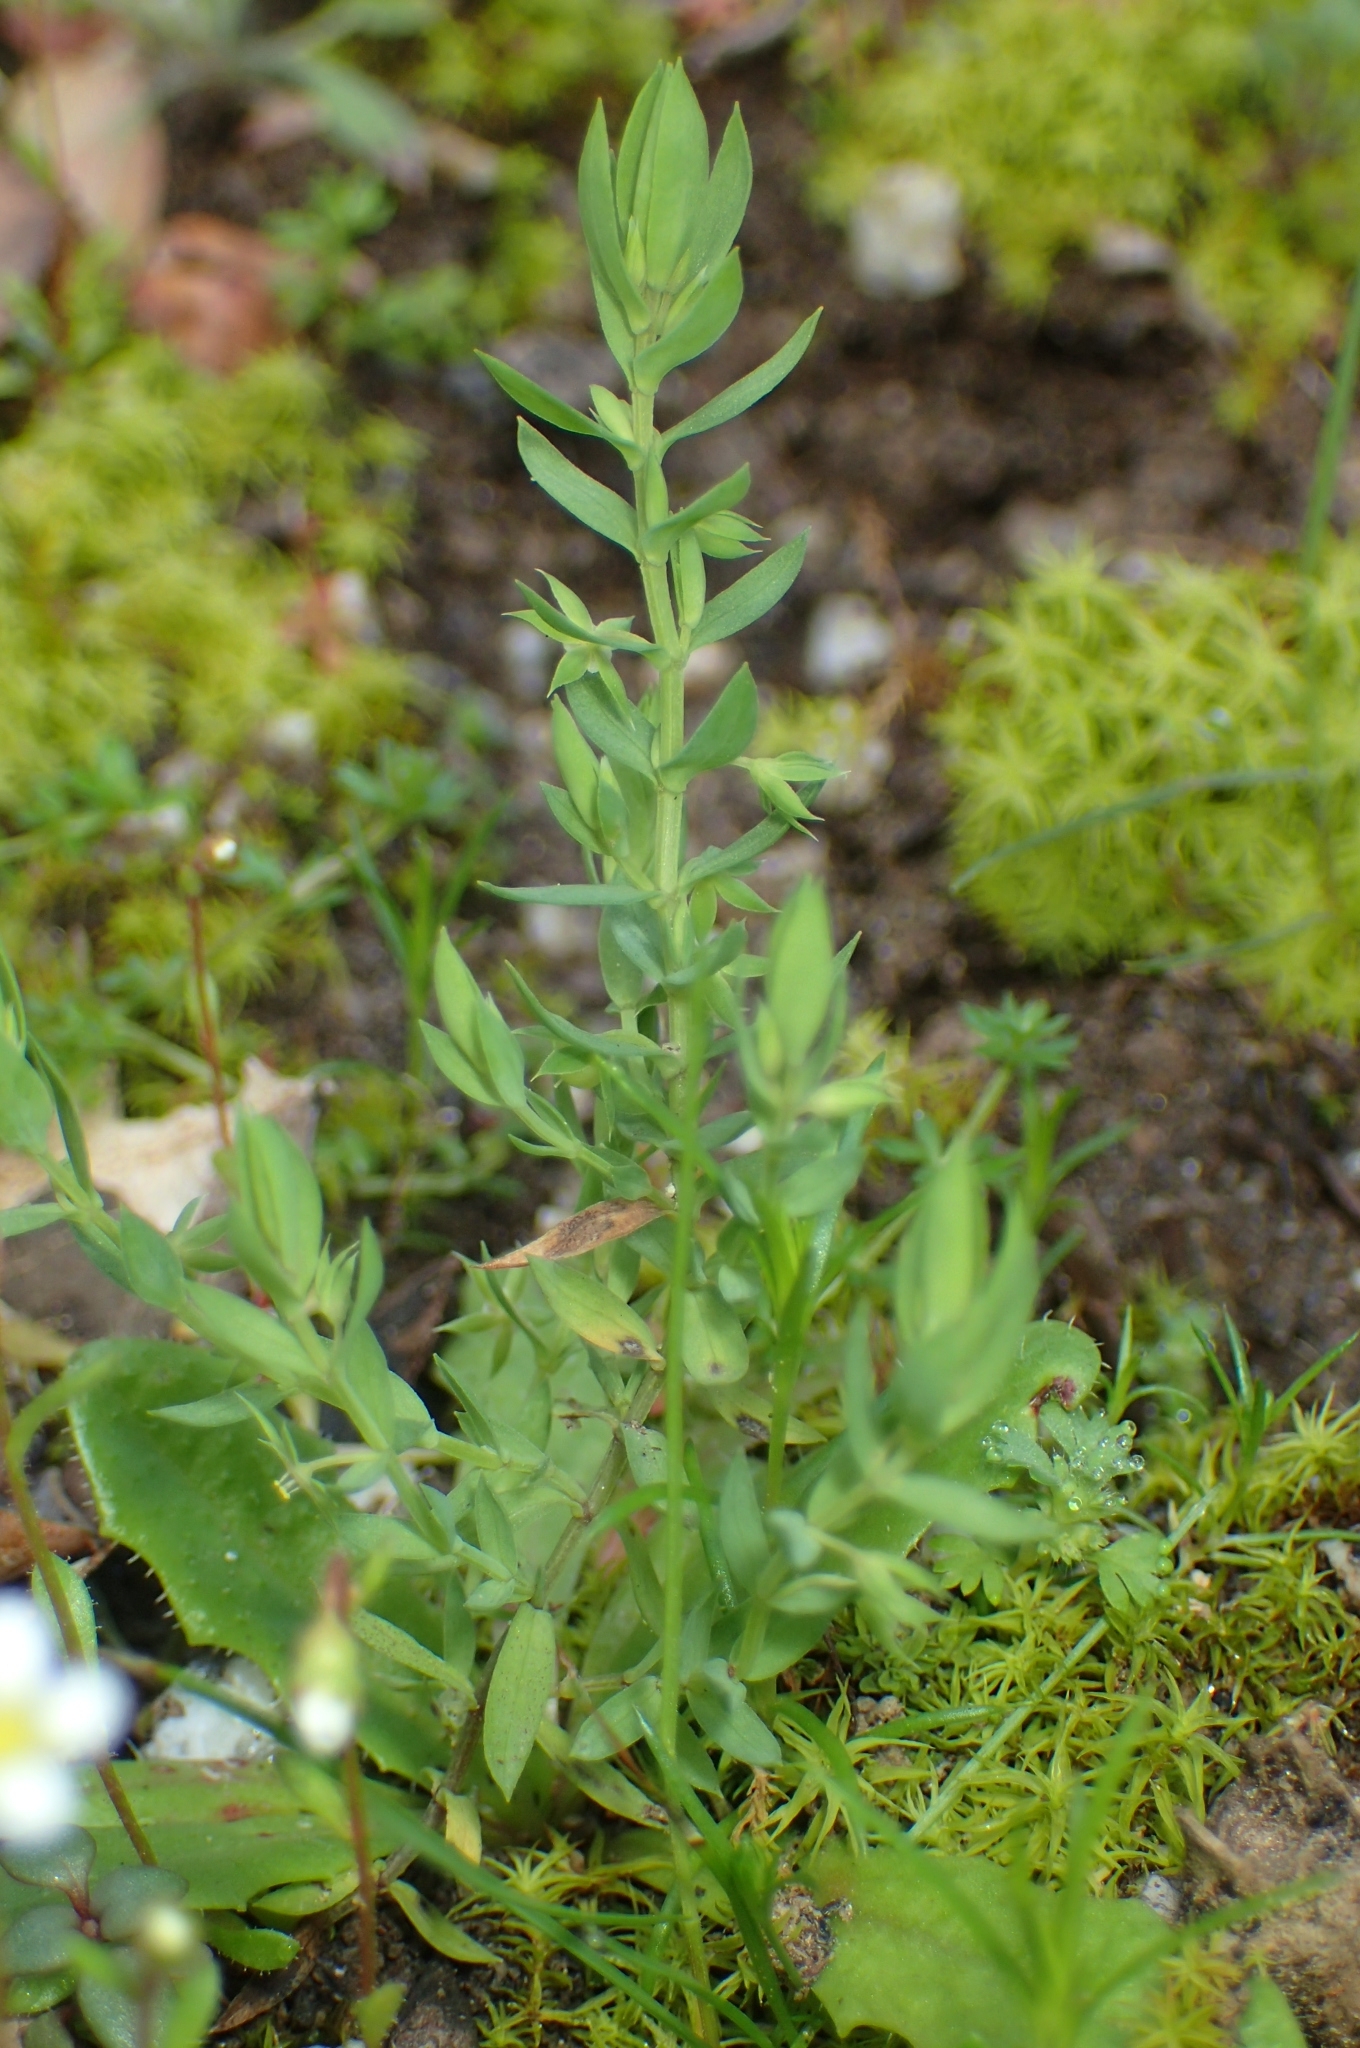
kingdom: Plantae
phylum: Tracheophyta
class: Magnoliopsida
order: Ericales
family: Primulaceae
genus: Lysimachia
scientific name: Lysimachia linum-stellatum
